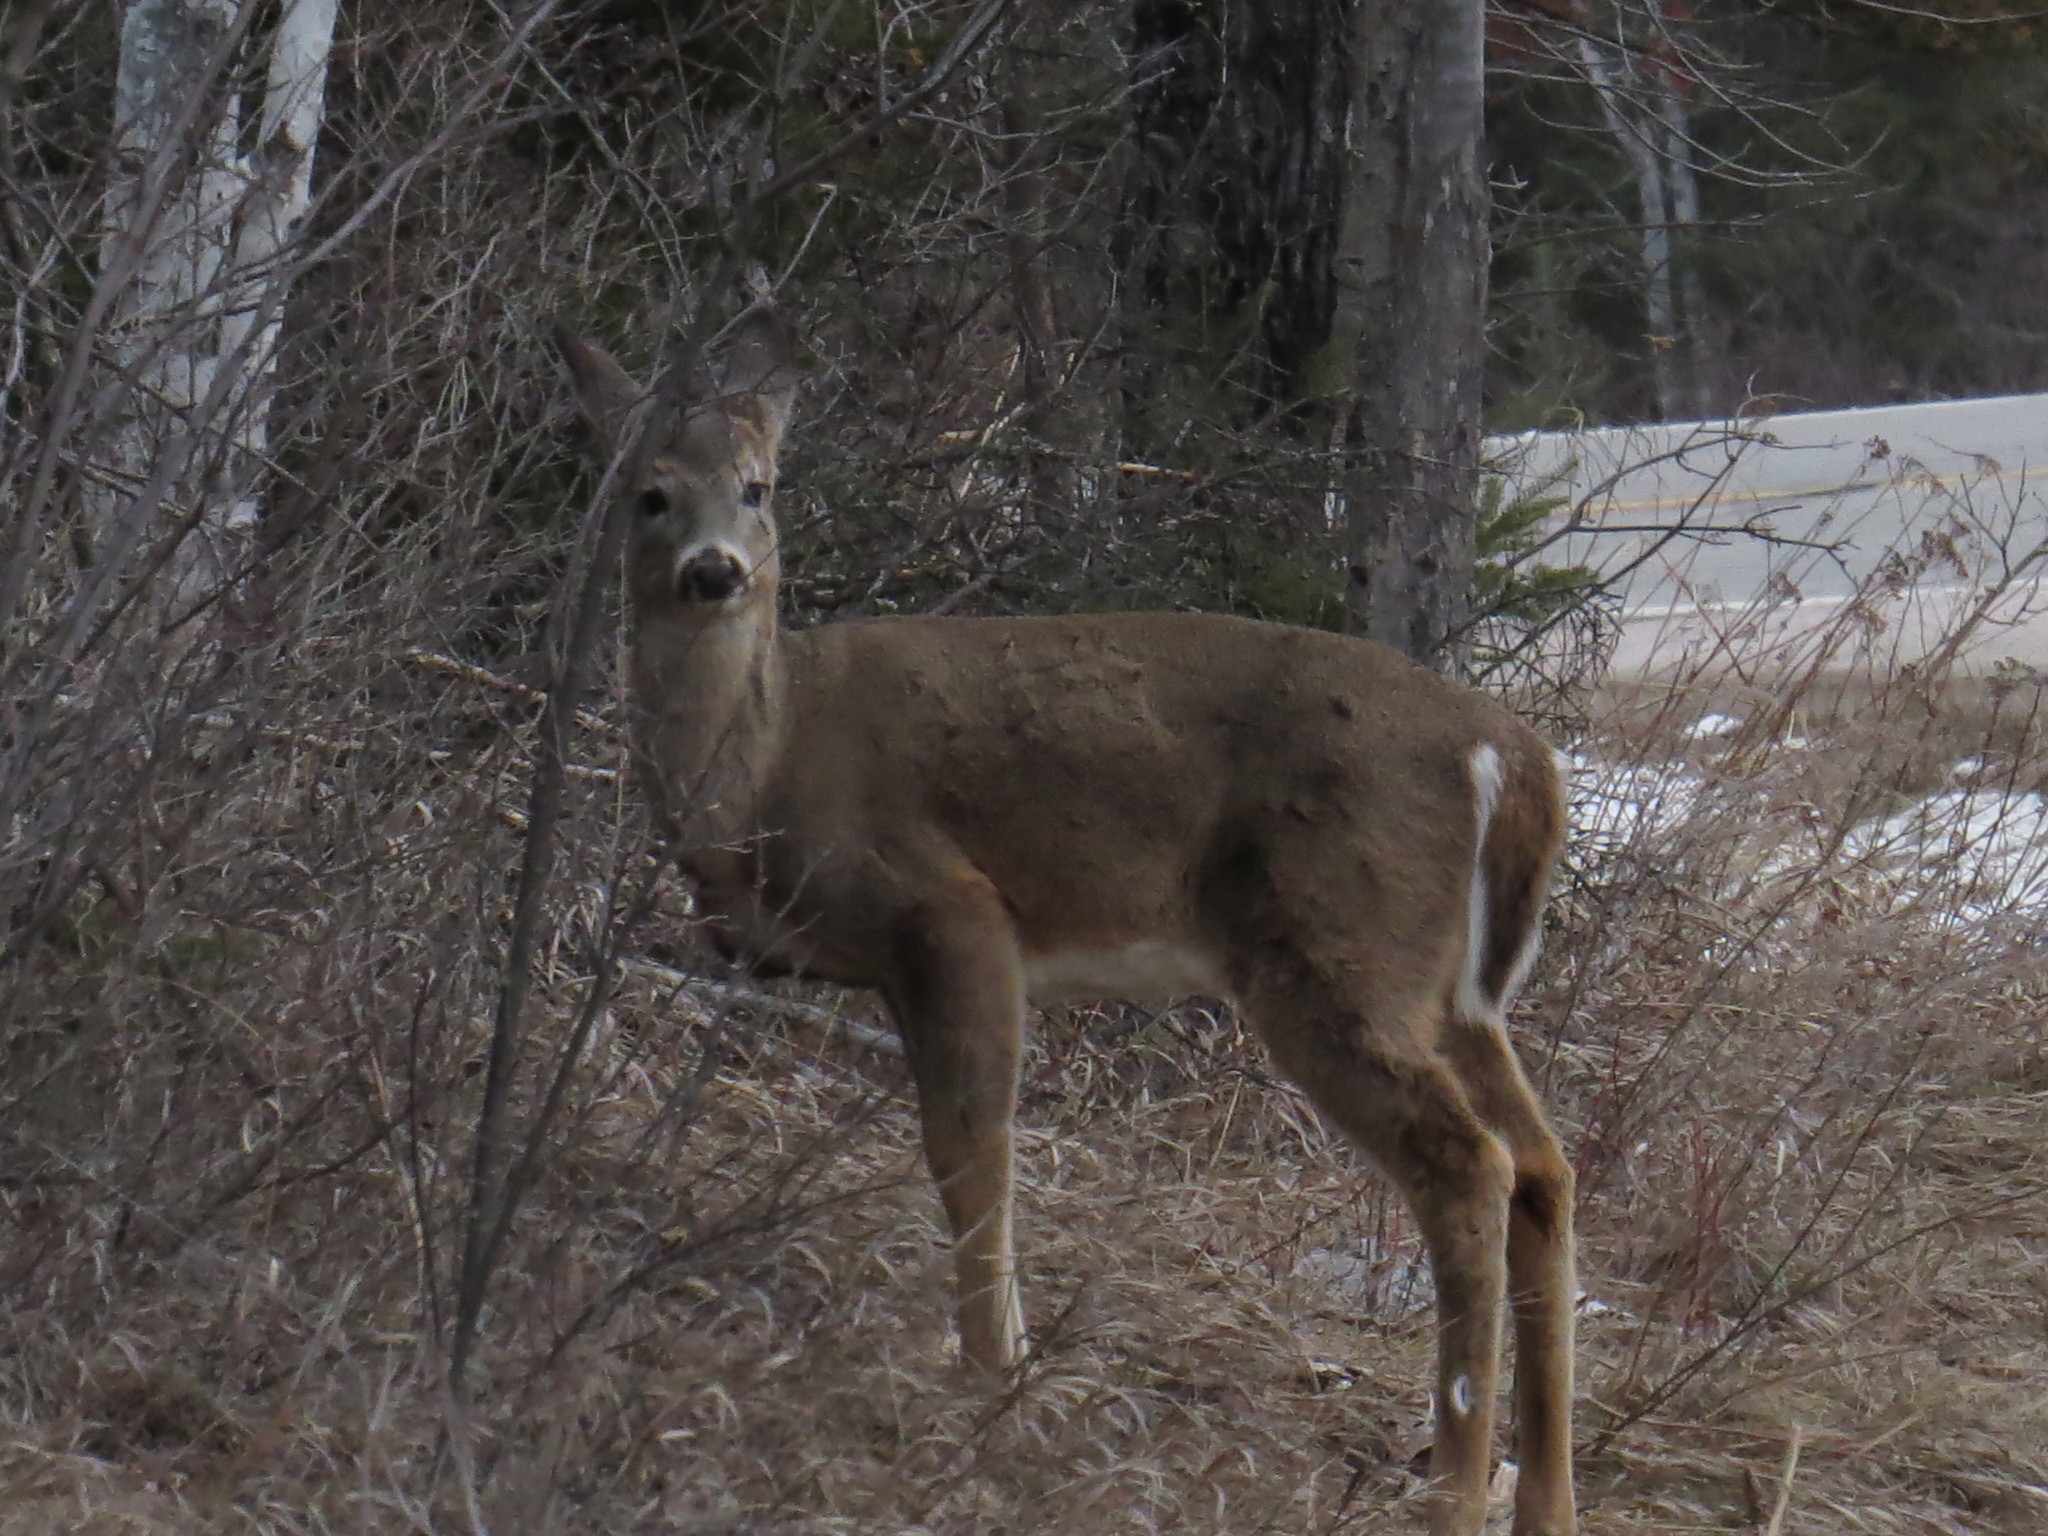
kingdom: Animalia
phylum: Chordata
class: Mammalia
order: Artiodactyla
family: Cervidae
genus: Odocoileus
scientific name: Odocoileus virginianus
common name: White-tailed deer
